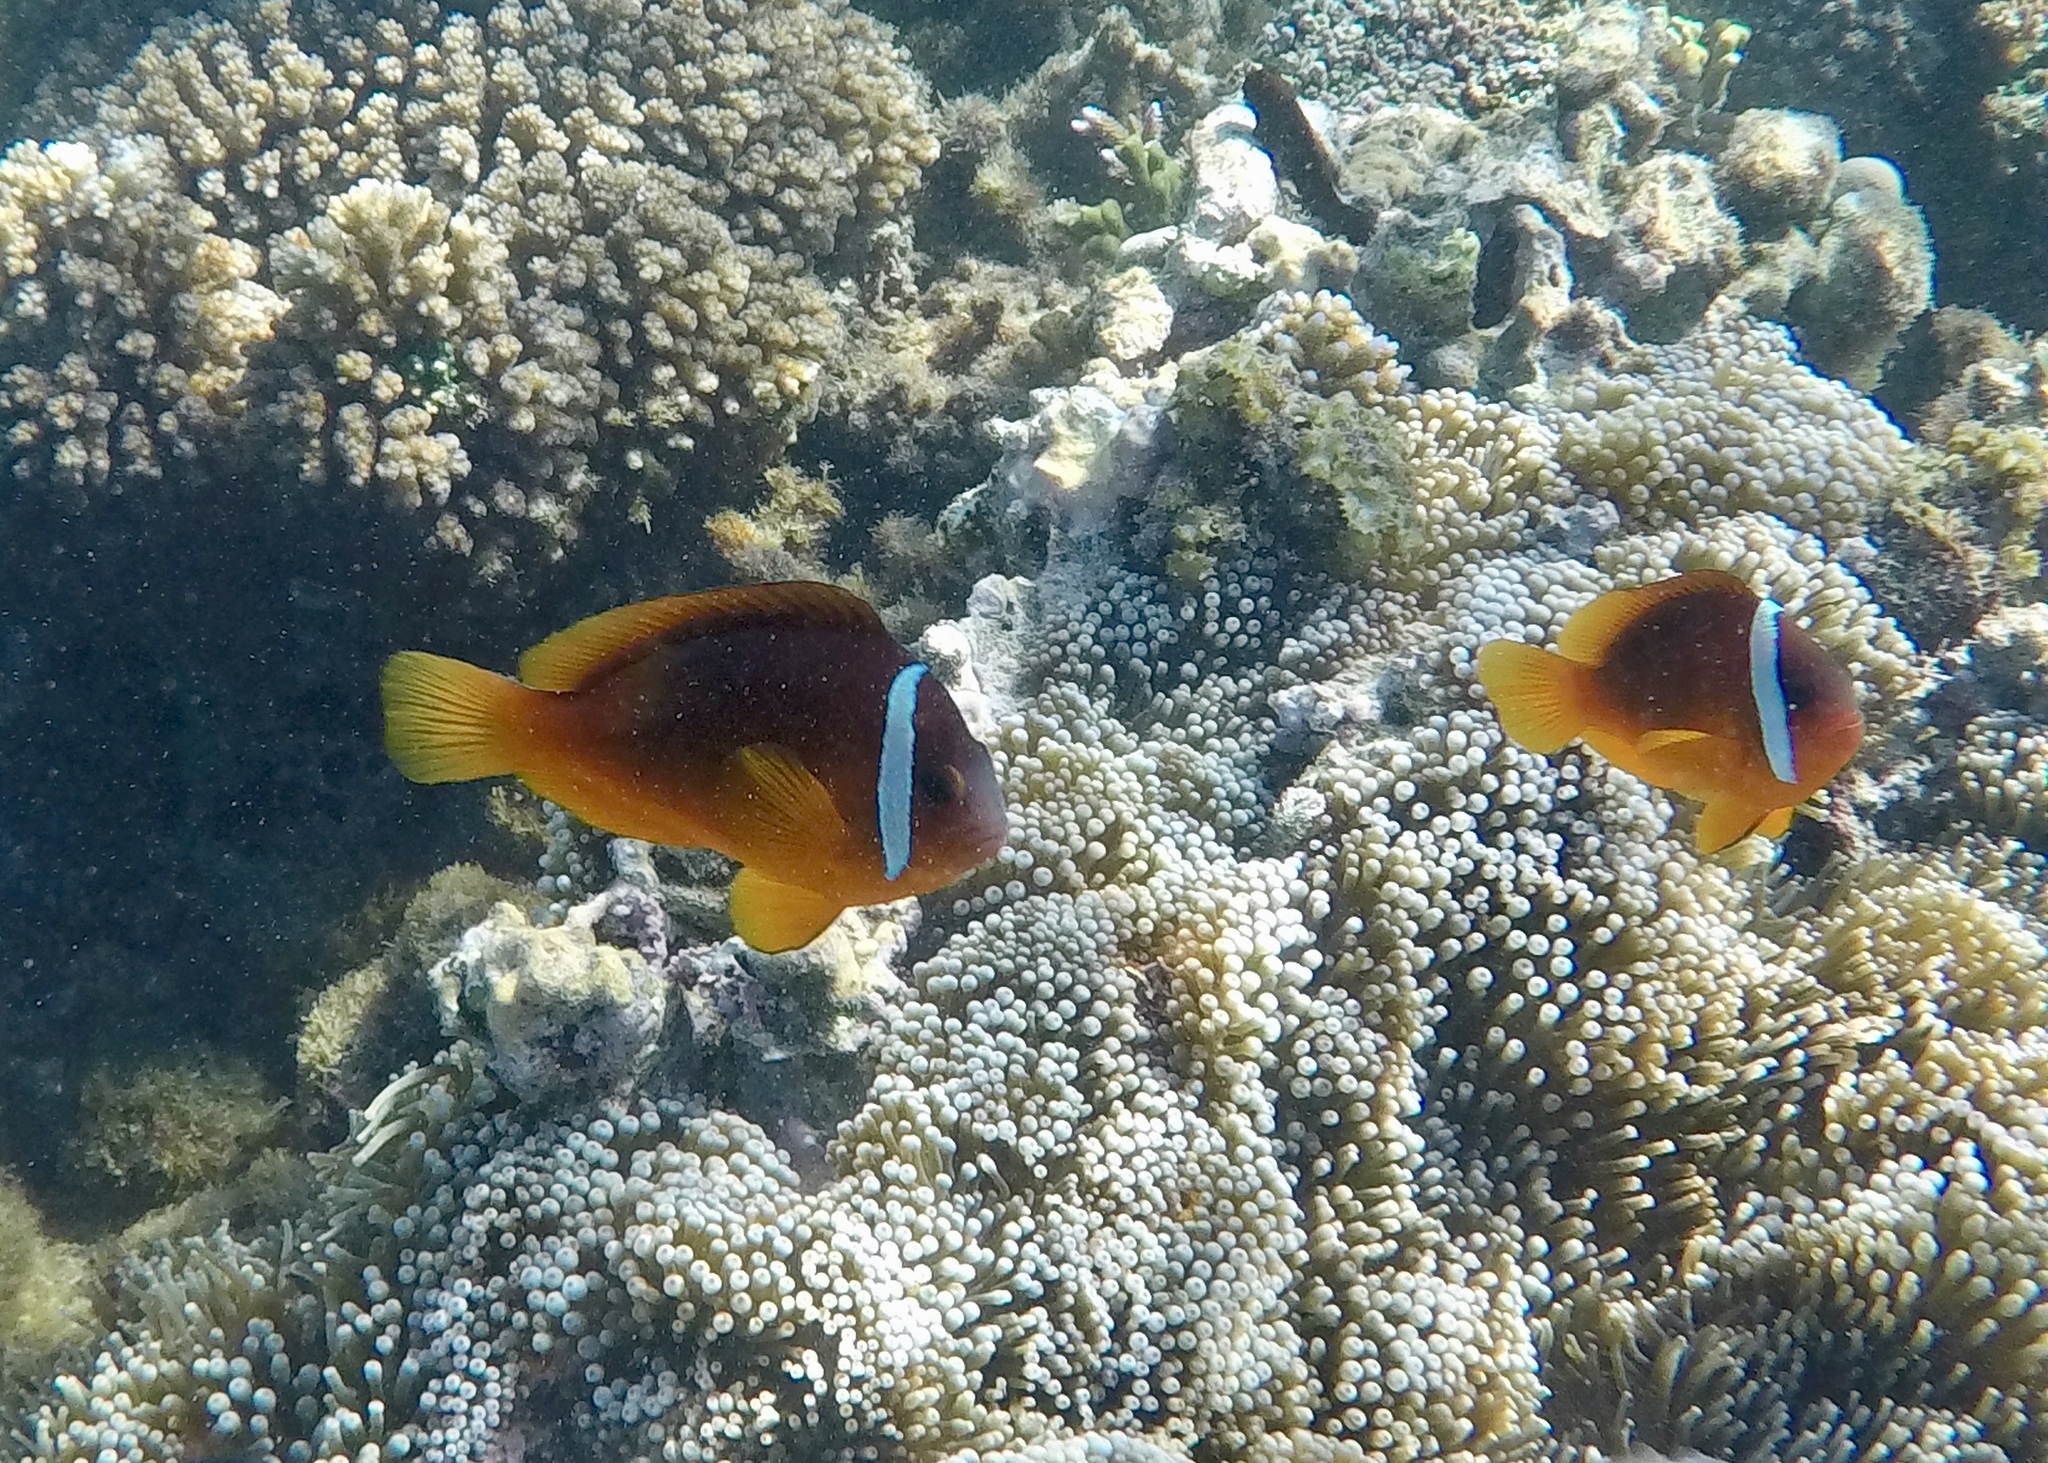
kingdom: Animalia
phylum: Chordata
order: Perciformes
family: Pomacentridae
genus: Amphiprion
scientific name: Amphiprion barberi
